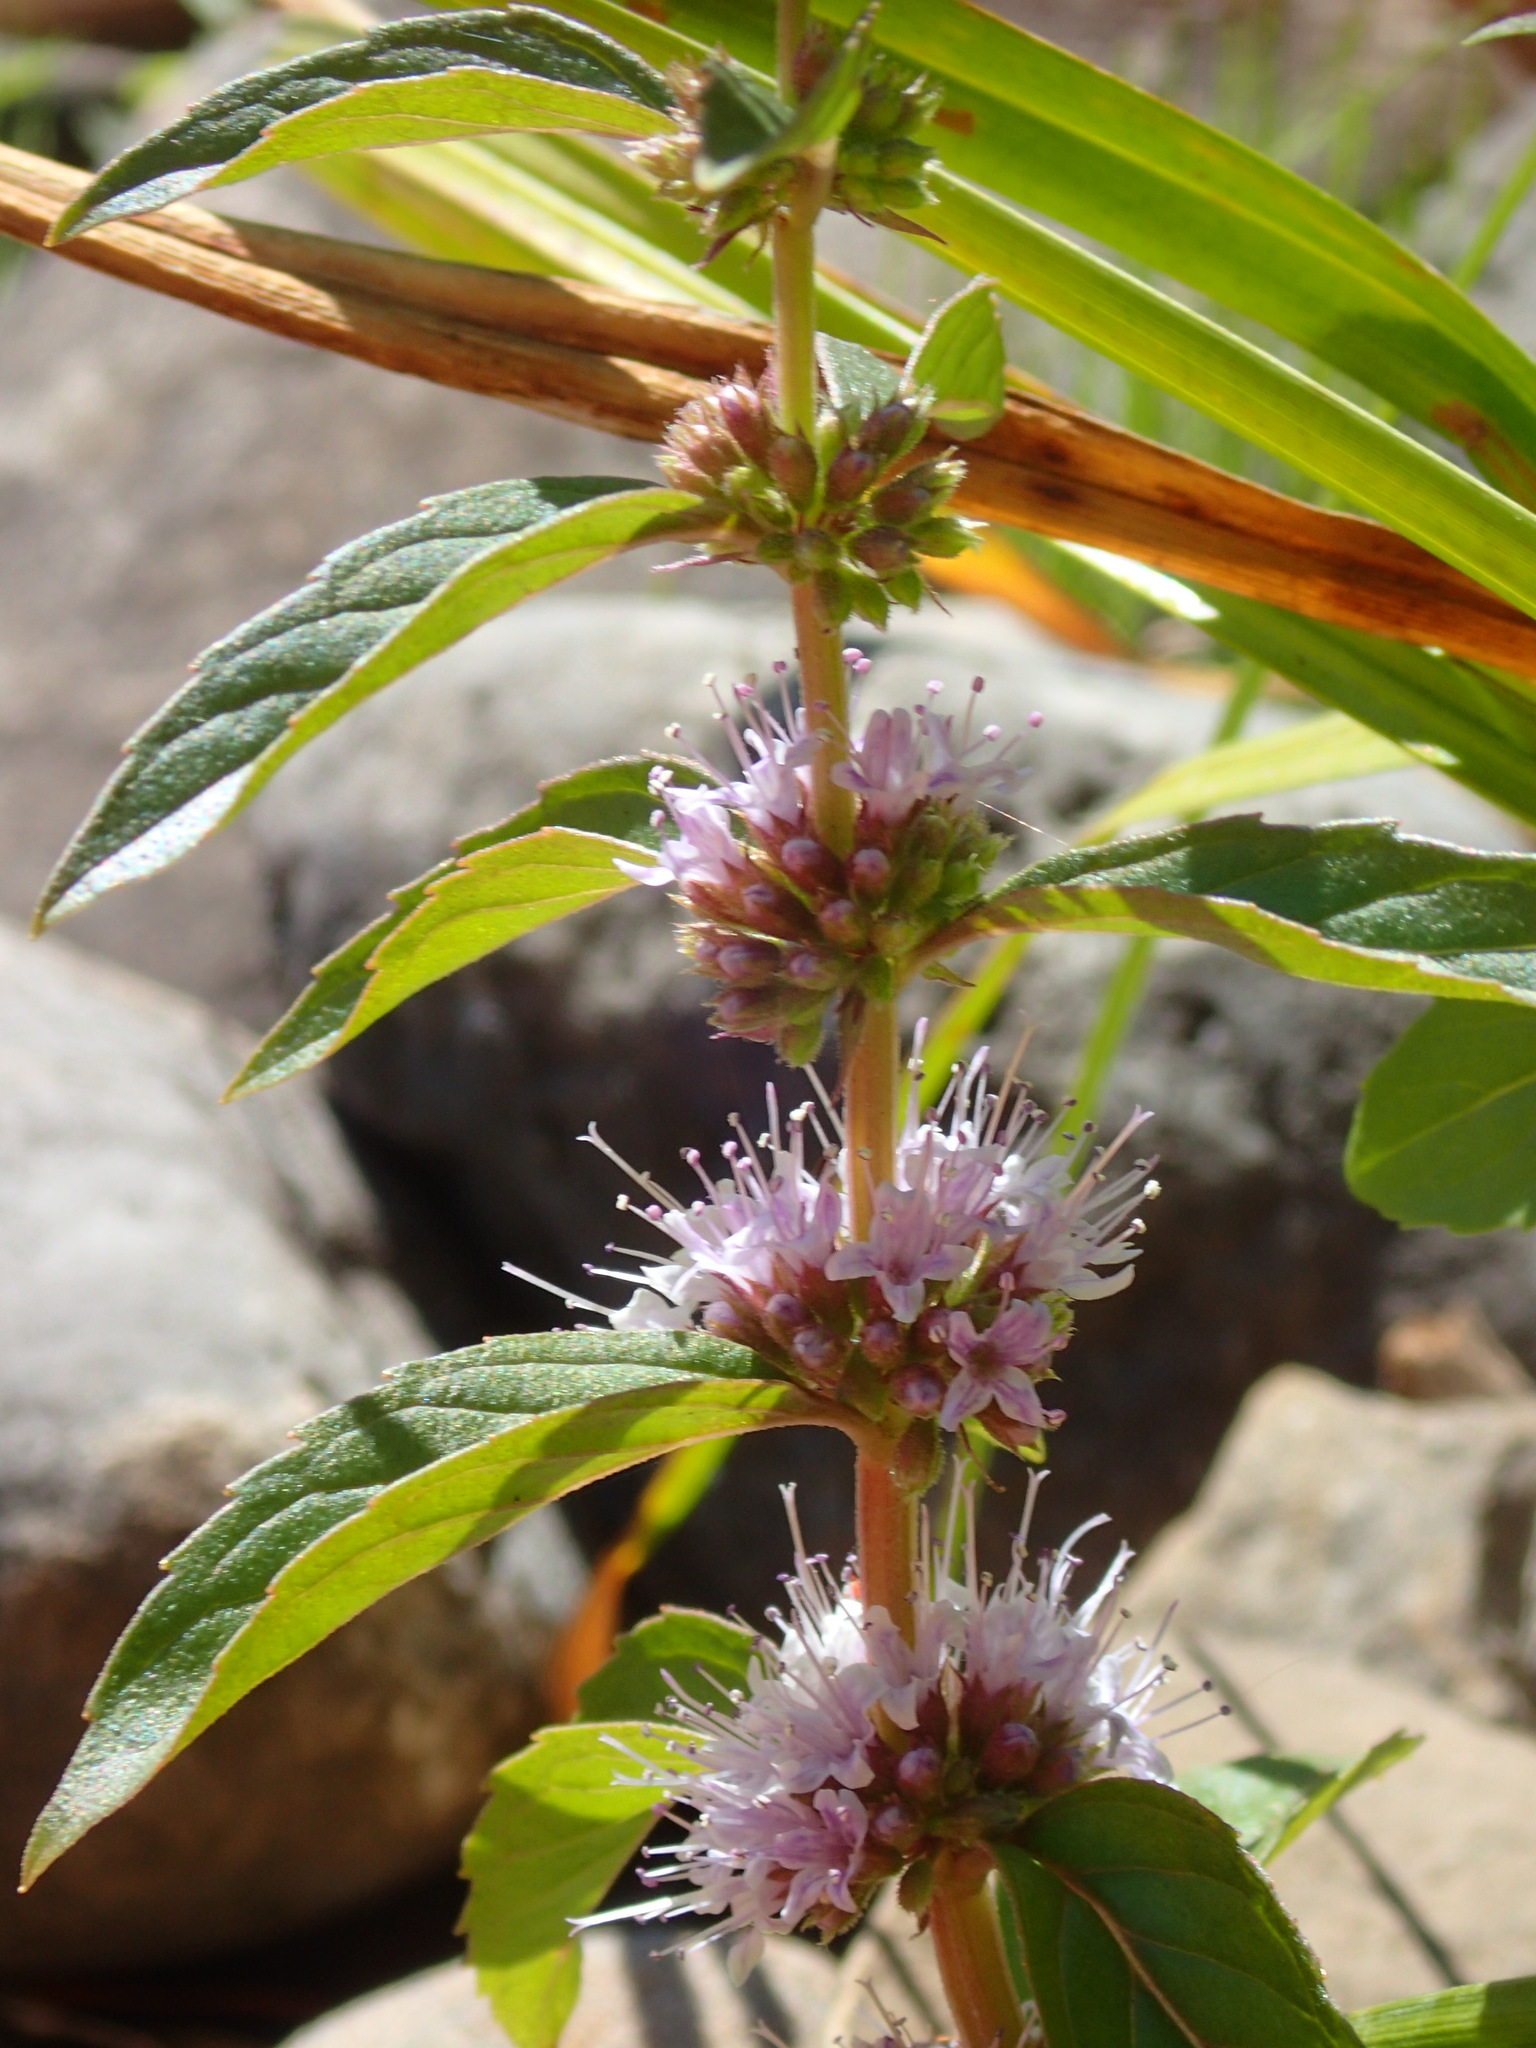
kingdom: Plantae
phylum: Tracheophyta
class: Magnoliopsida
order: Lamiales
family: Lamiaceae
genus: Mentha
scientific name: Mentha canadensis
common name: American corn mint
